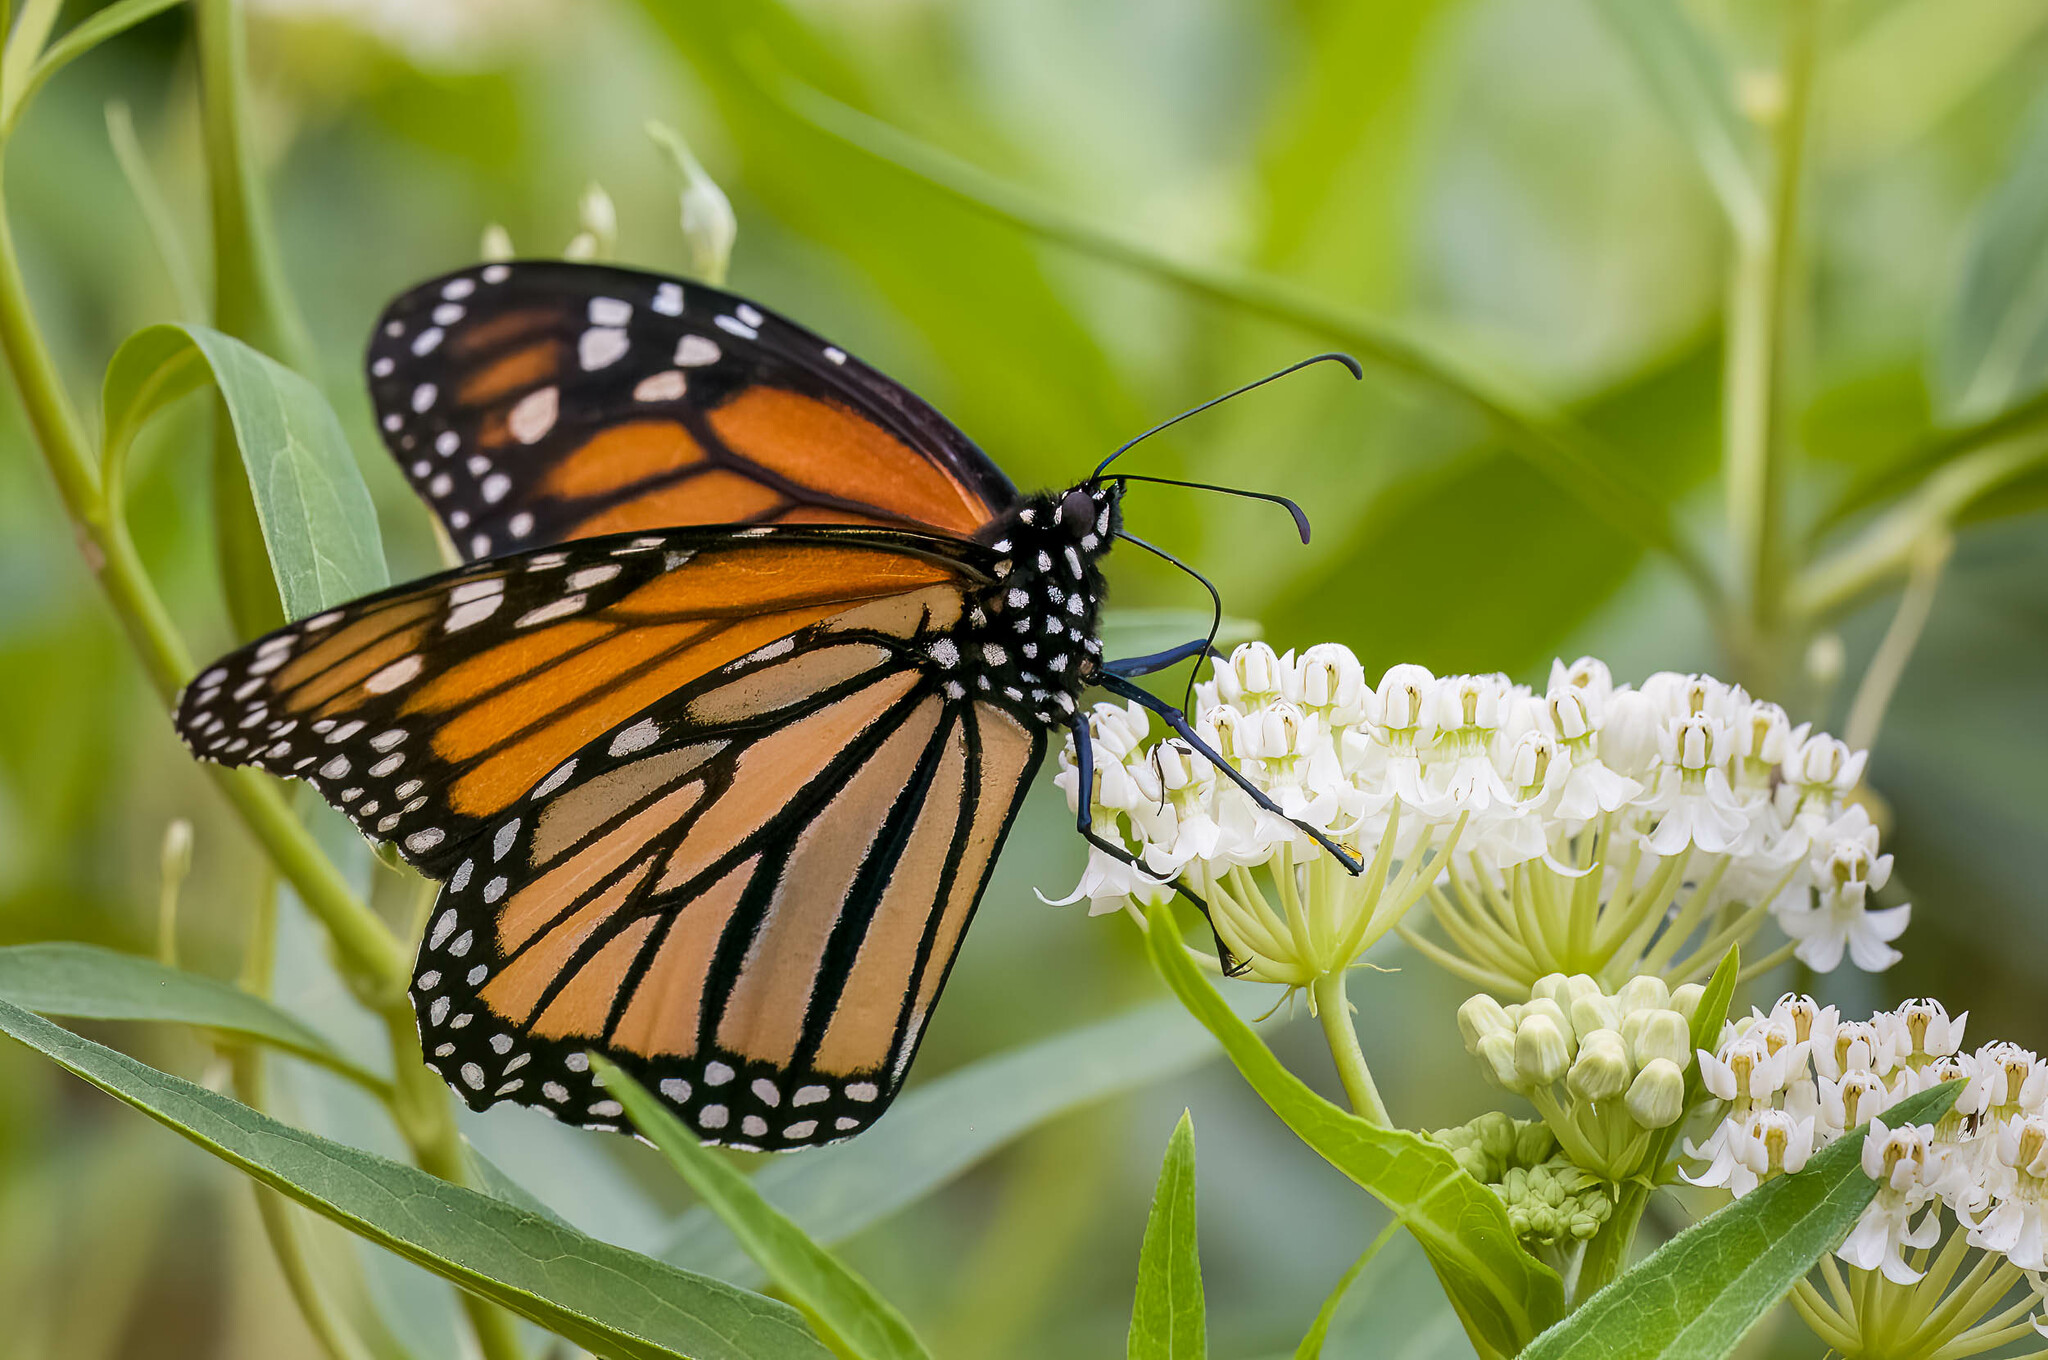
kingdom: Animalia
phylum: Arthropoda
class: Insecta
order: Lepidoptera
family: Nymphalidae
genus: Danaus
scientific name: Danaus plexippus
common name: Monarch
